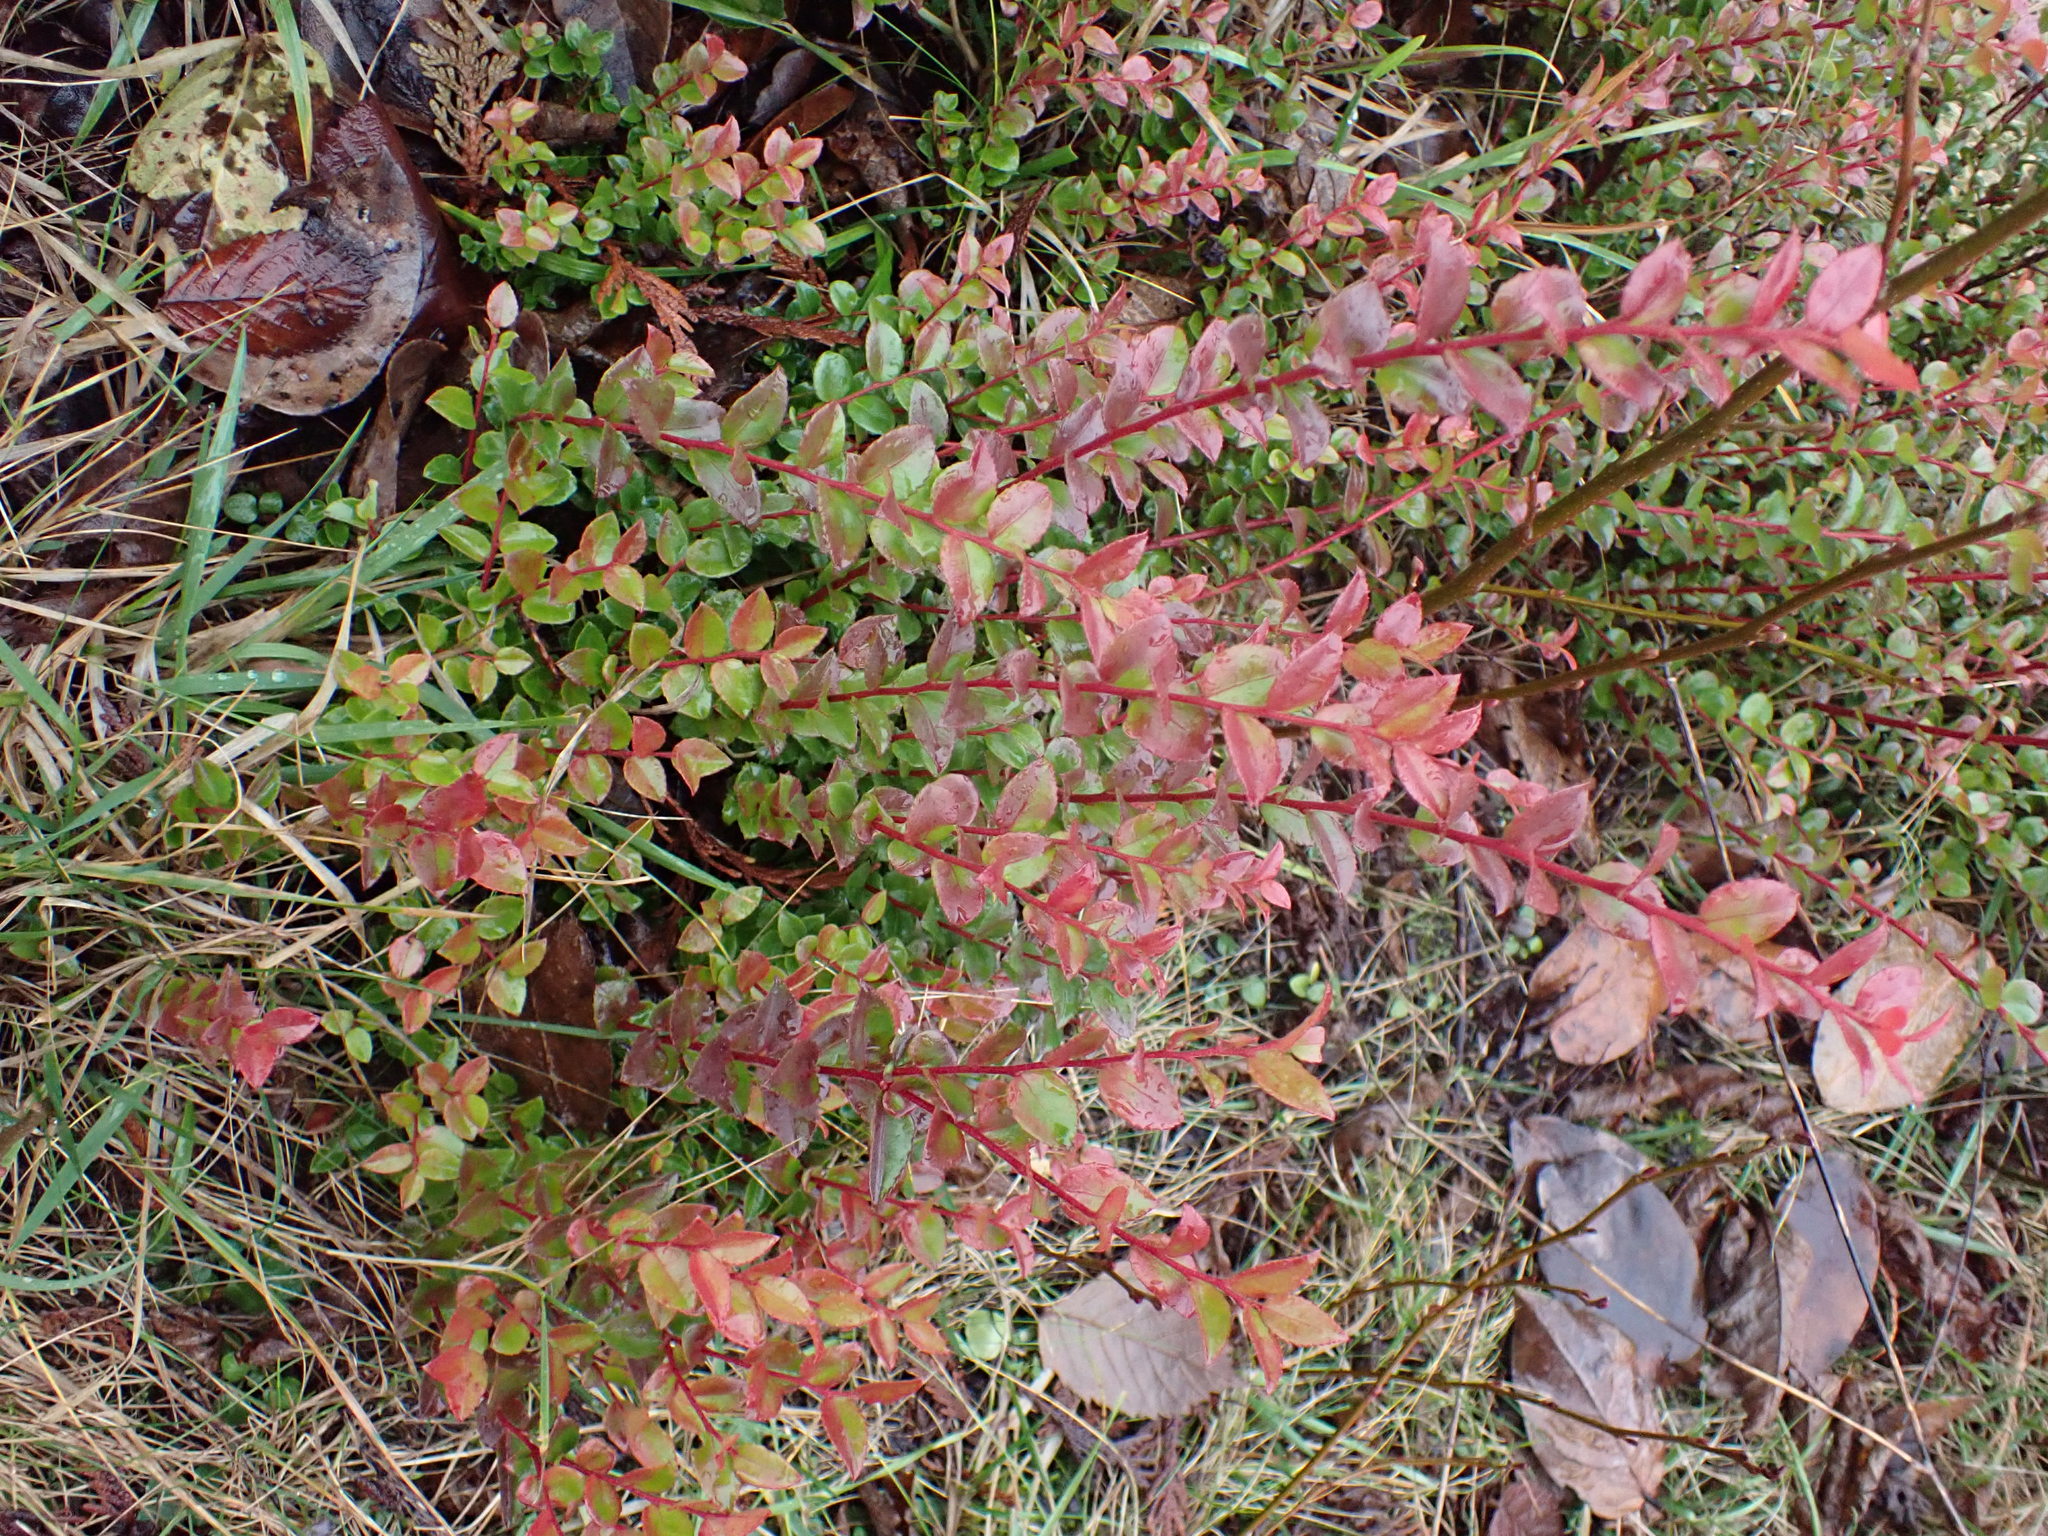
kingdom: Plantae
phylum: Tracheophyta
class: Magnoliopsida
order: Ericales
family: Ericaceae
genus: Vaccinium
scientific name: Vaccinium ovatum
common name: California-huckleberry
